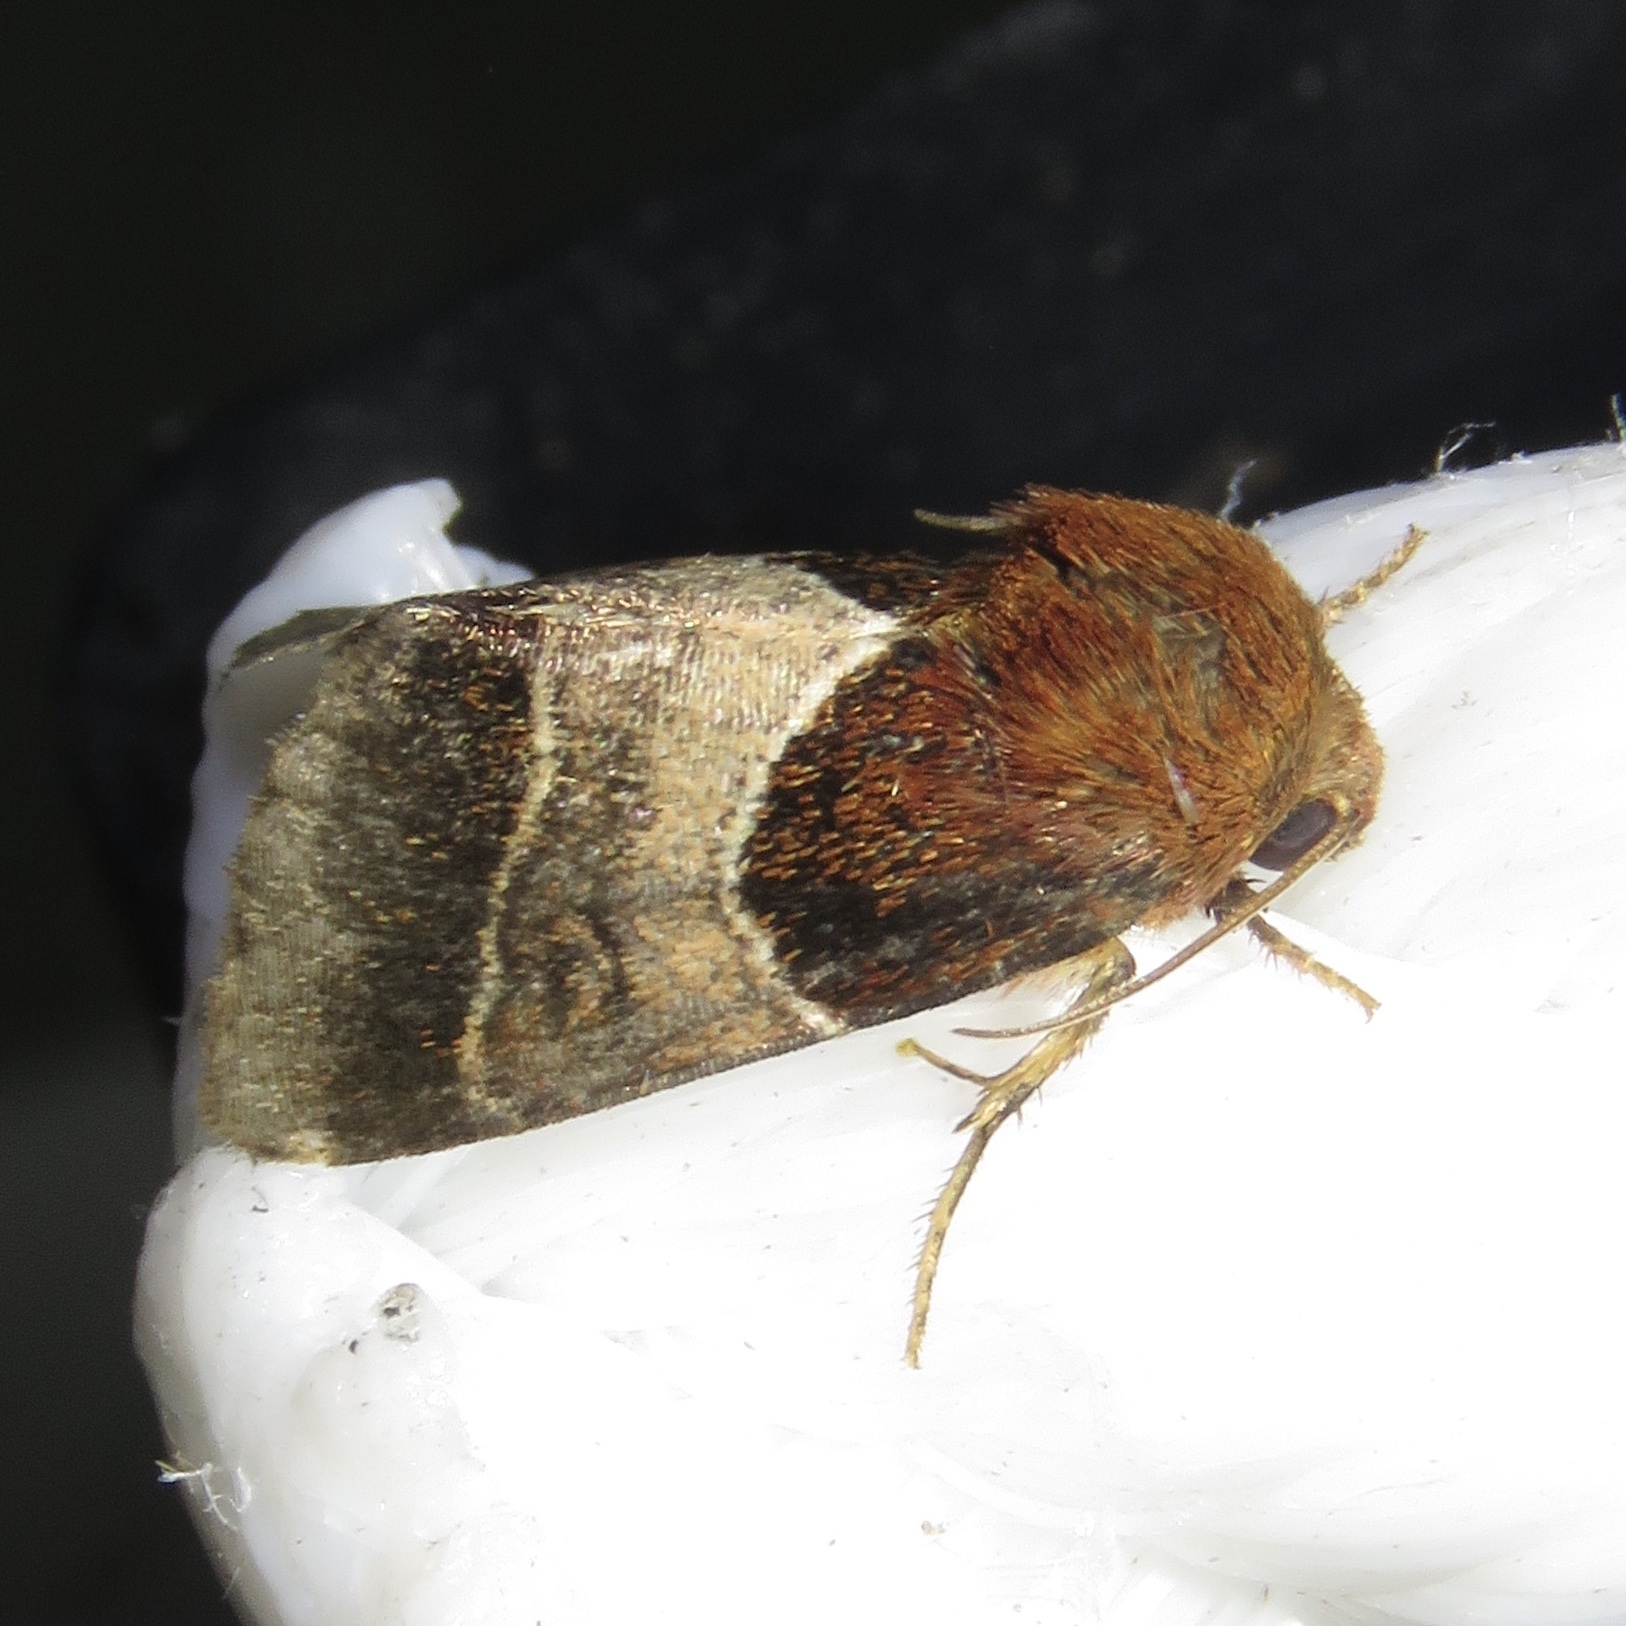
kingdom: Animalia
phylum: Arthropoda
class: Insecta
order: Lepidoptera
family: Noctuidae
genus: Schinia
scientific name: Schinia arcigera
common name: Arcigera flower moth
